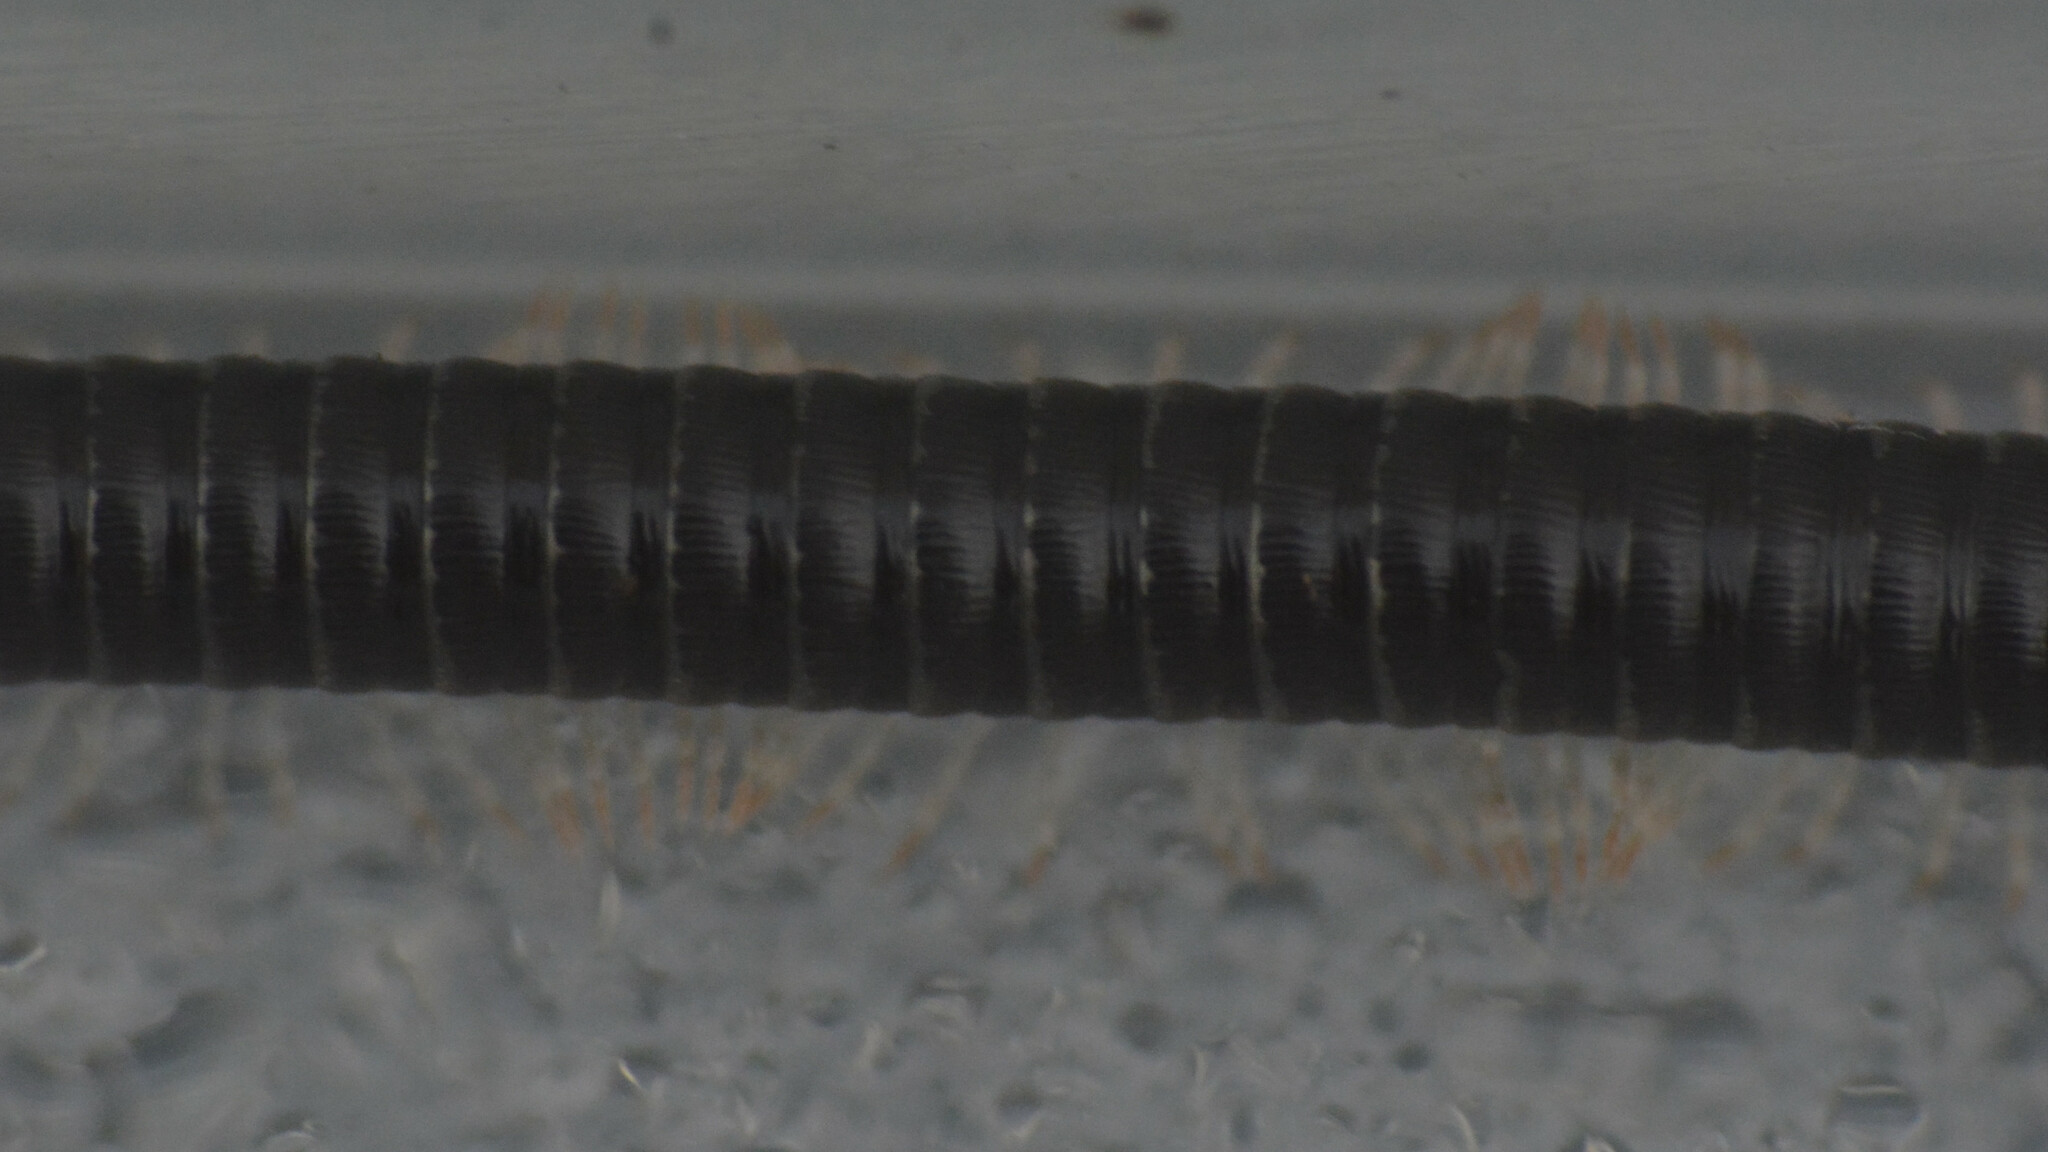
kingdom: Animalia
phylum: Arthropoda
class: Diplopoda
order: Julida
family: Julidae
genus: Tachypodoiulus
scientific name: Tachypodoiulus niger
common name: White-legged snake millipede
